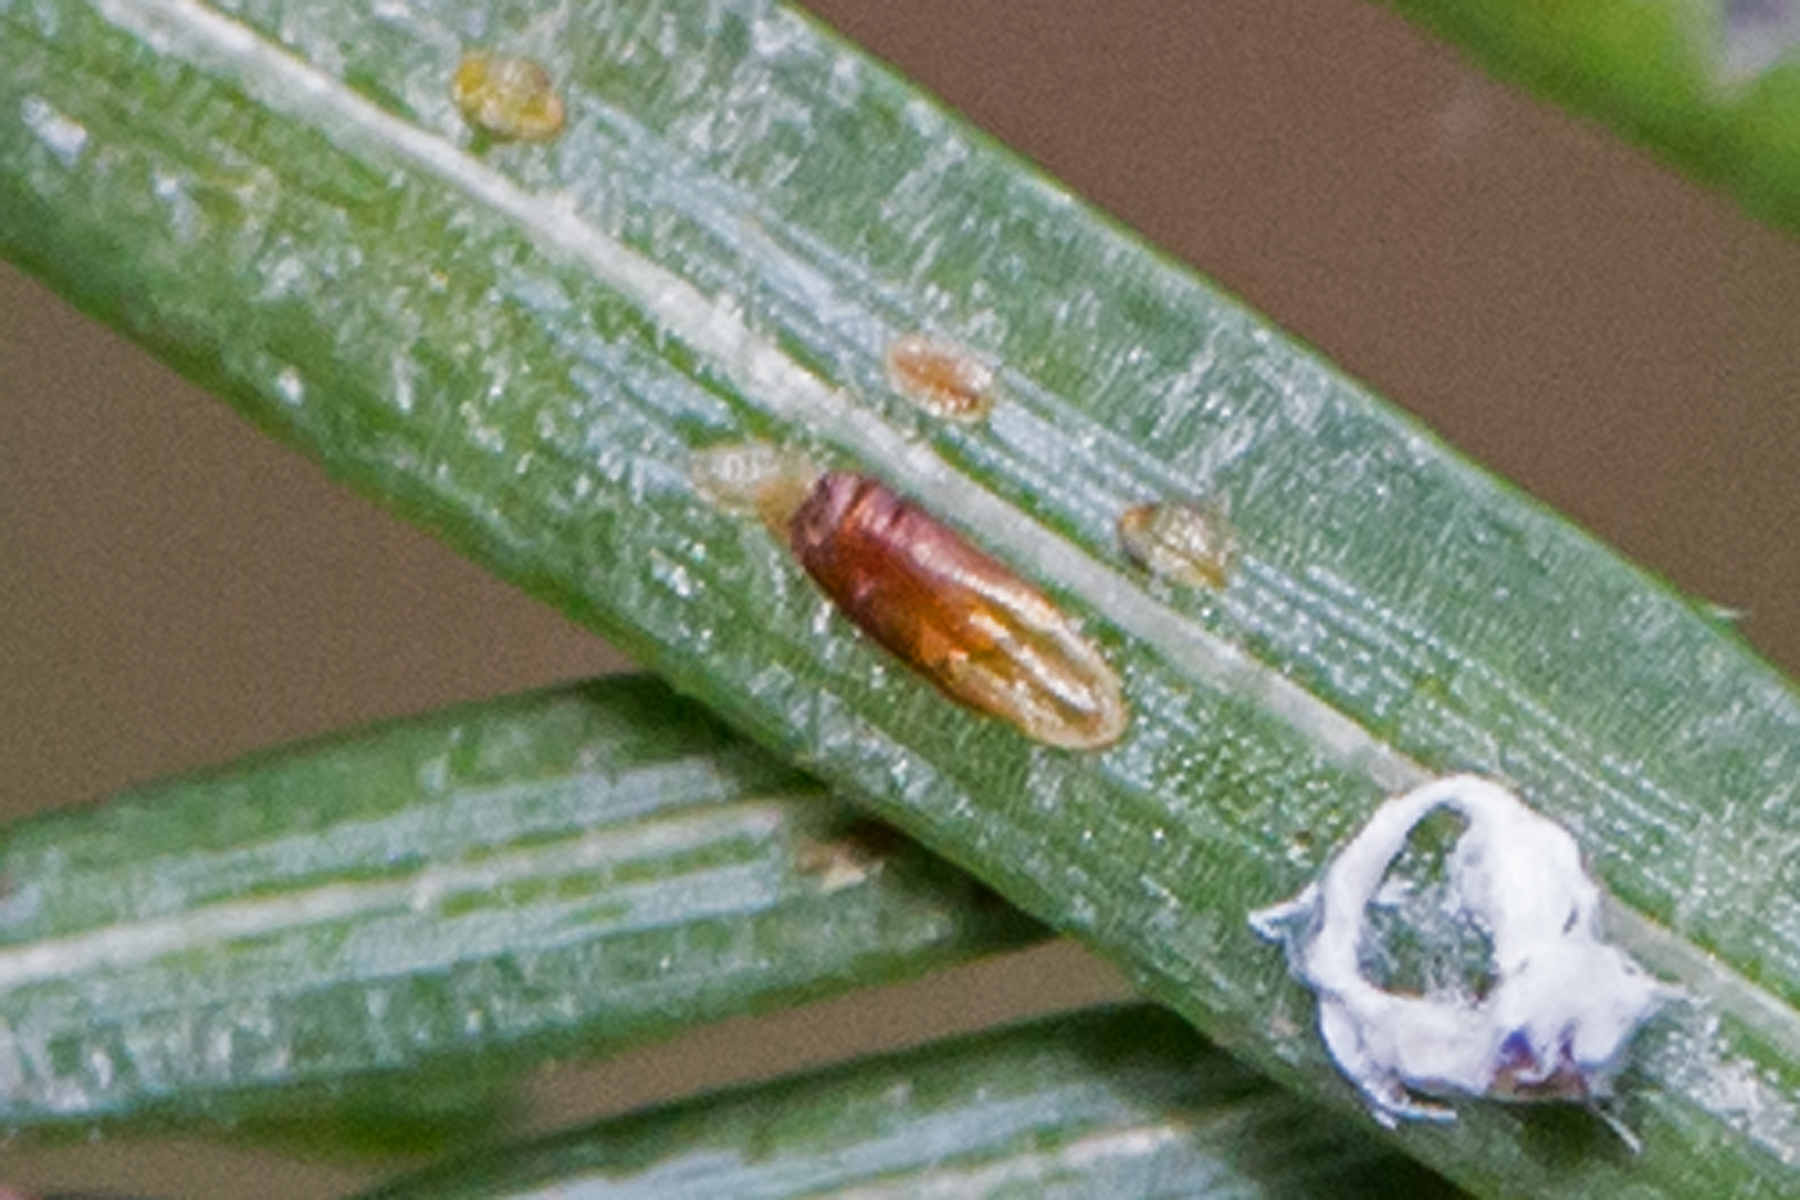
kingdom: Animalia
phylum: Arthropoda
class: Insecta
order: Hemiptera
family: Diaspididae
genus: Fiorinia
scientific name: Fiorinia externa
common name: Elongate hemlock scale
